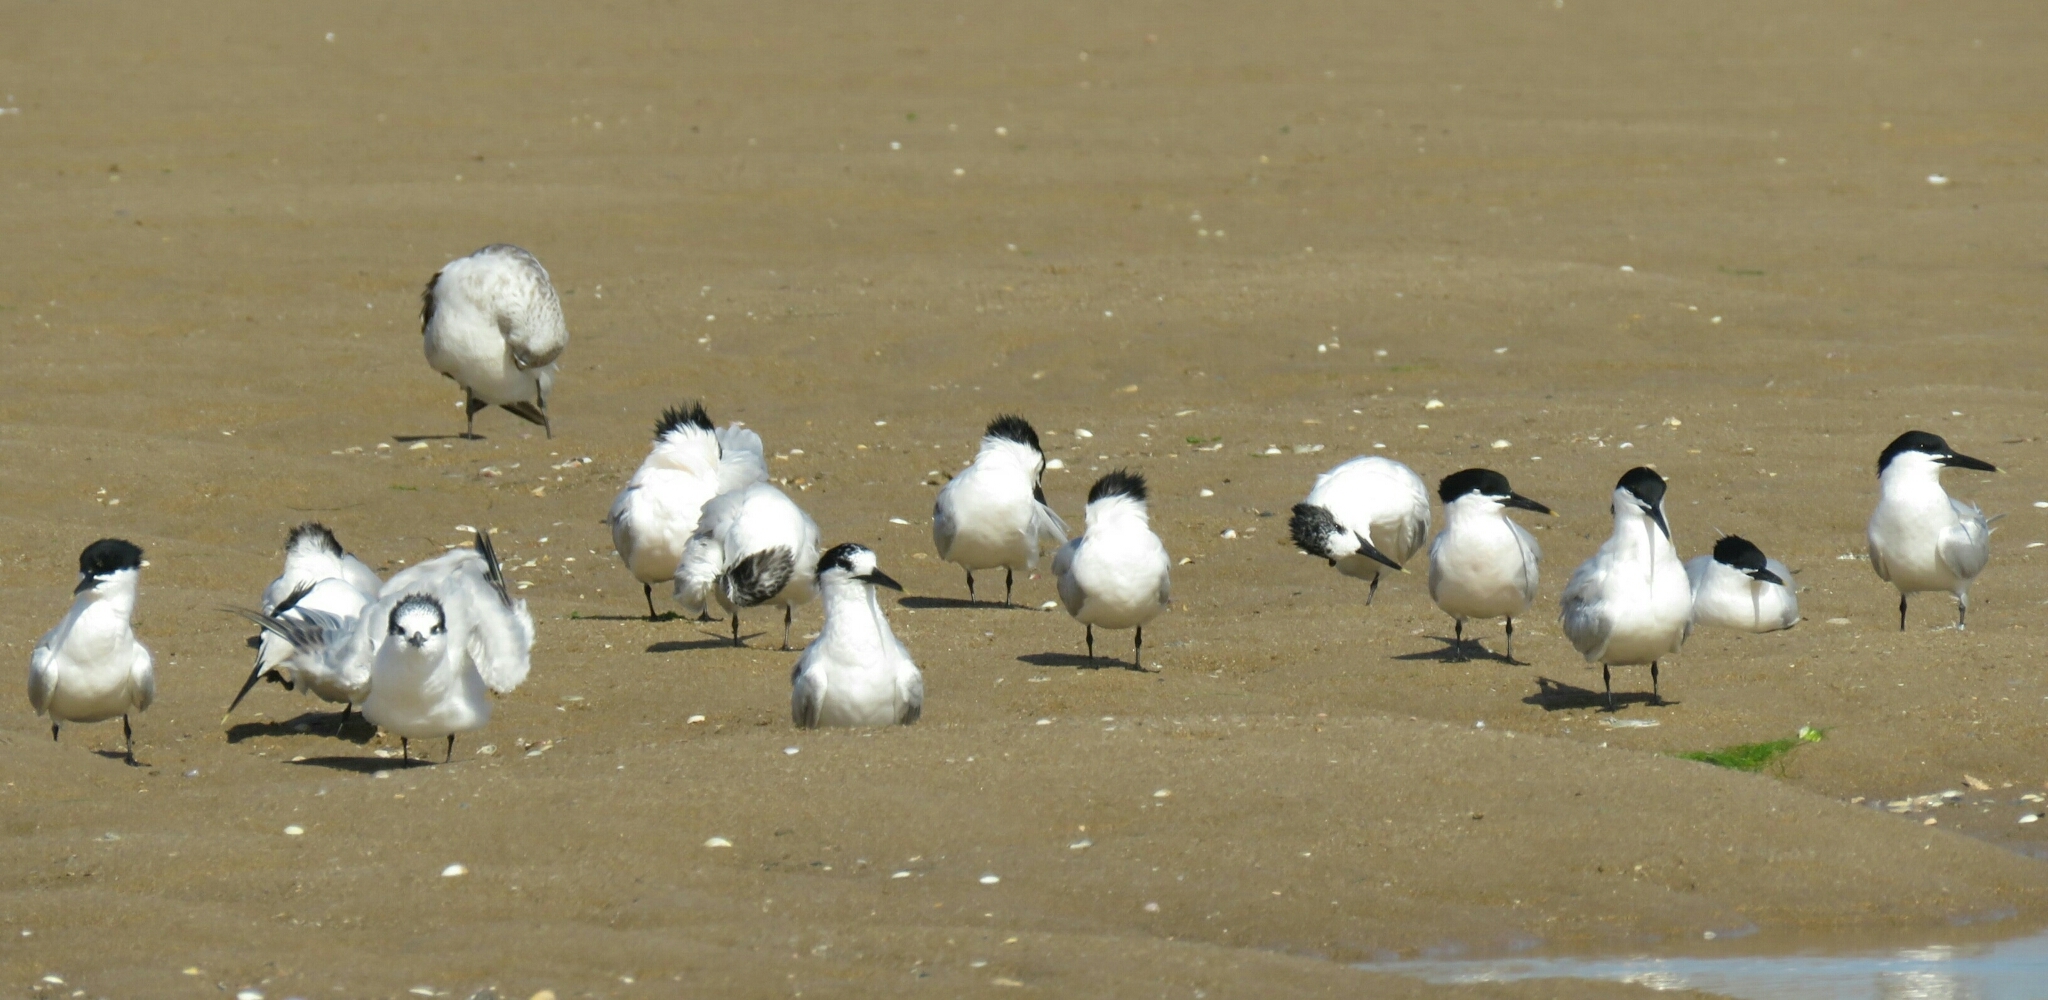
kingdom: Animalia
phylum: Chordata
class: Aves
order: Charadriiformes
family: Laridae
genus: Thalasseus
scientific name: Thalasseus sandvicensis
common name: Sandwich tern
